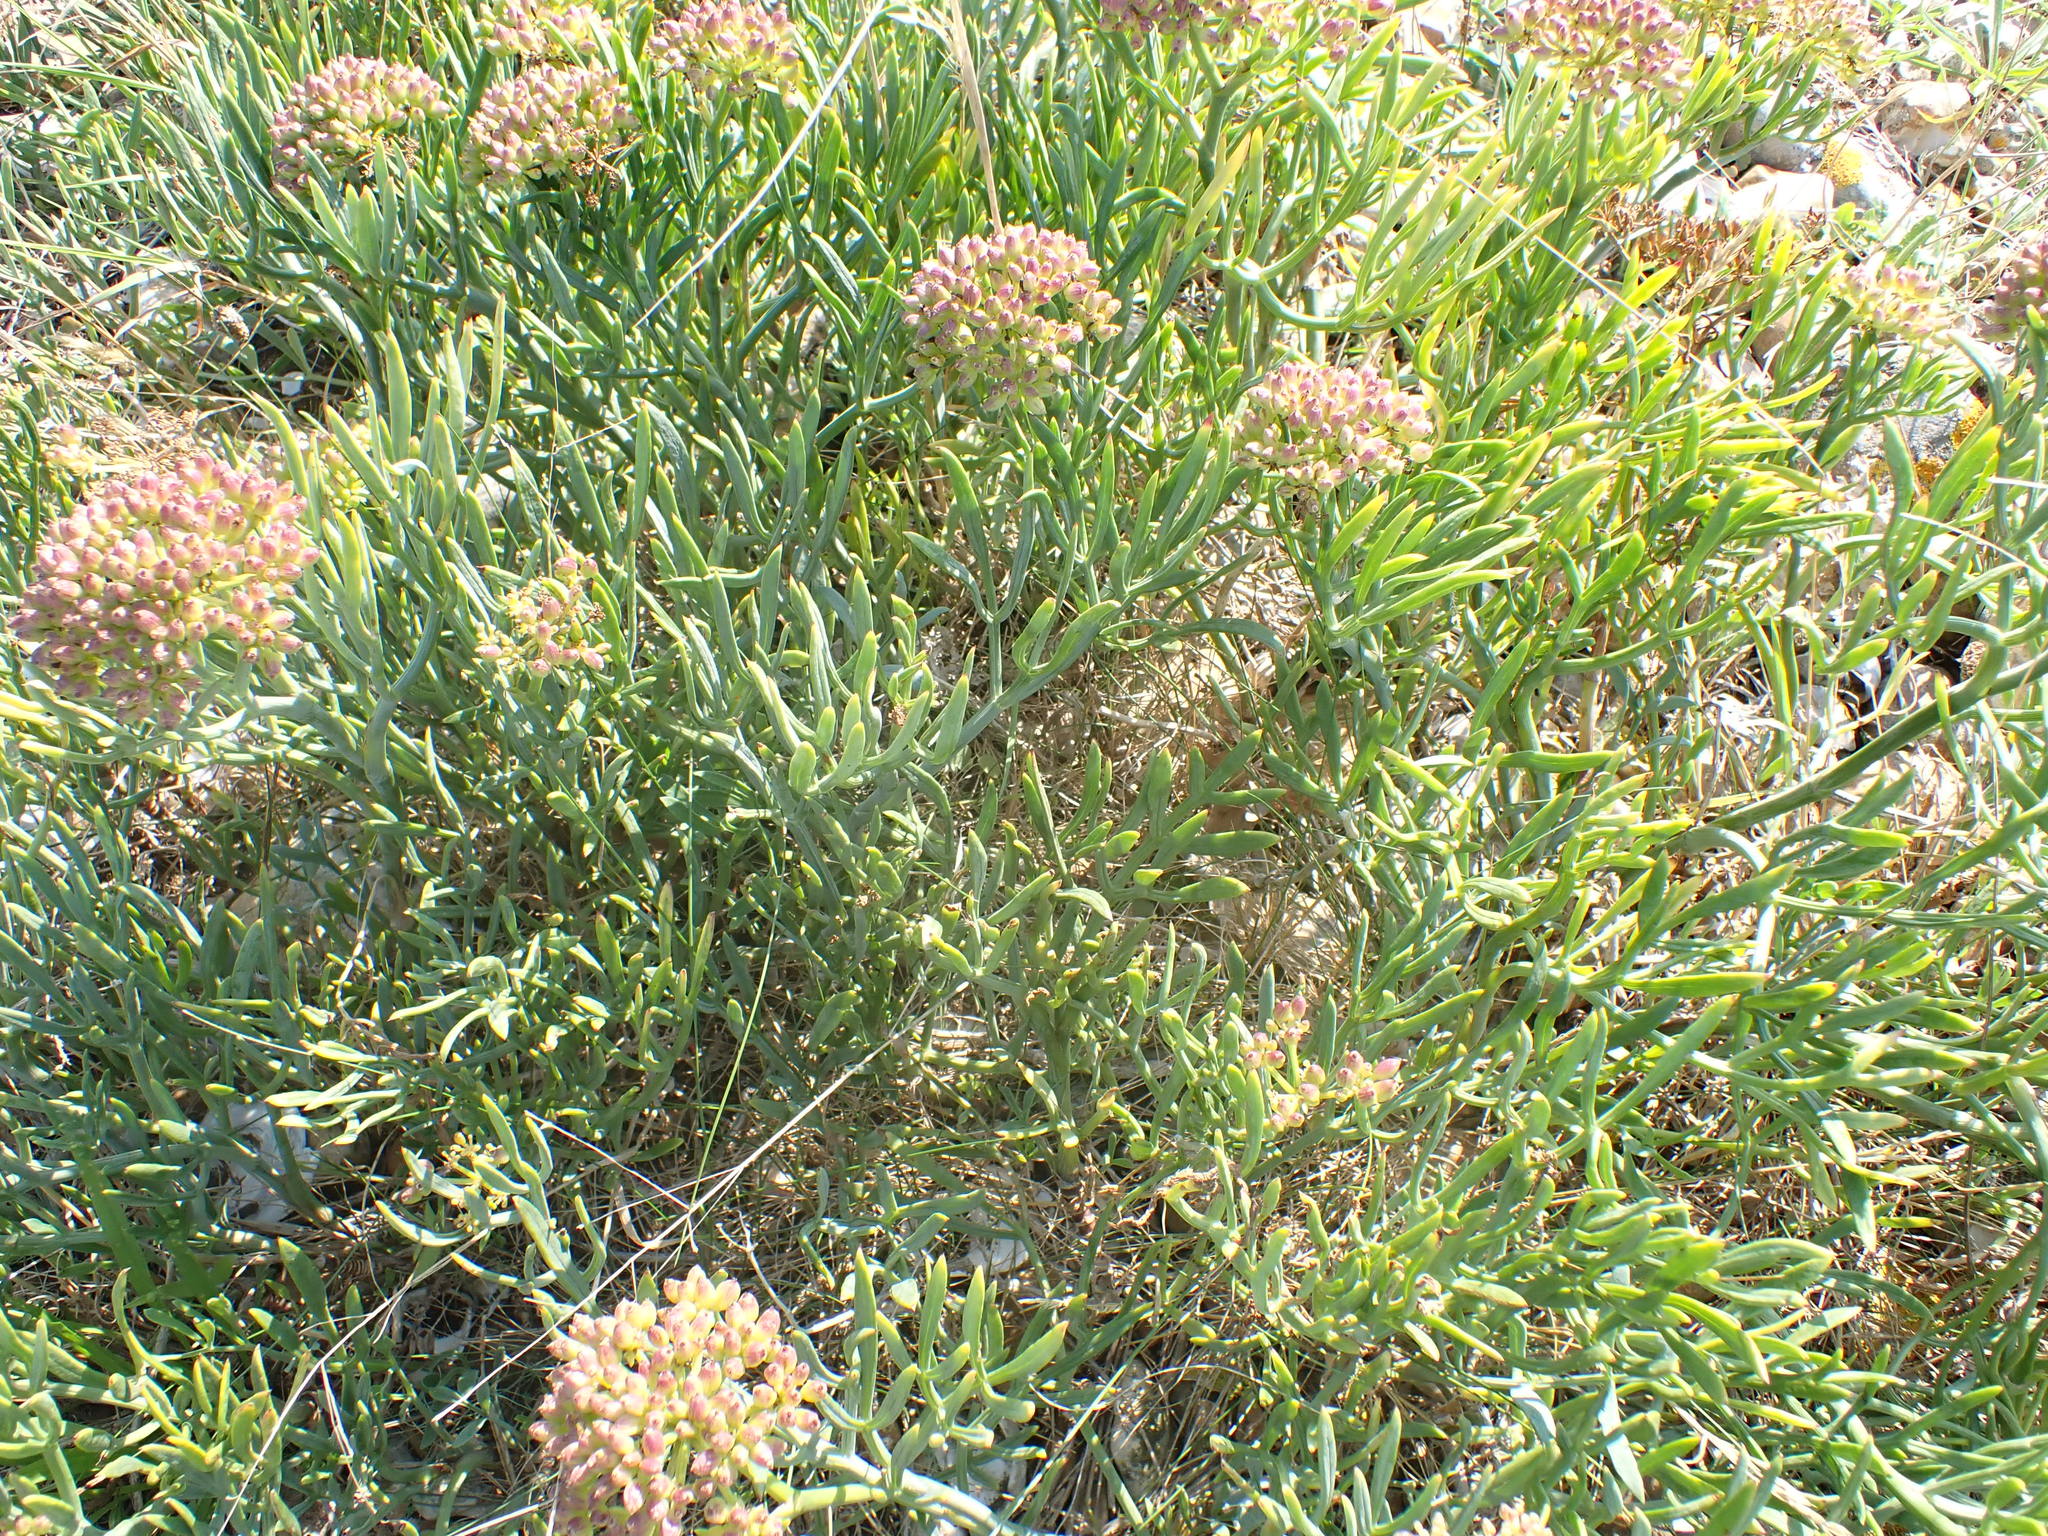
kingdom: Plantae
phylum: Tracheophyta
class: Magnoliopsida
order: Apiales
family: Apiaceae
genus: Crithmum
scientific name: Crithmum maritimum
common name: Rock samphire
